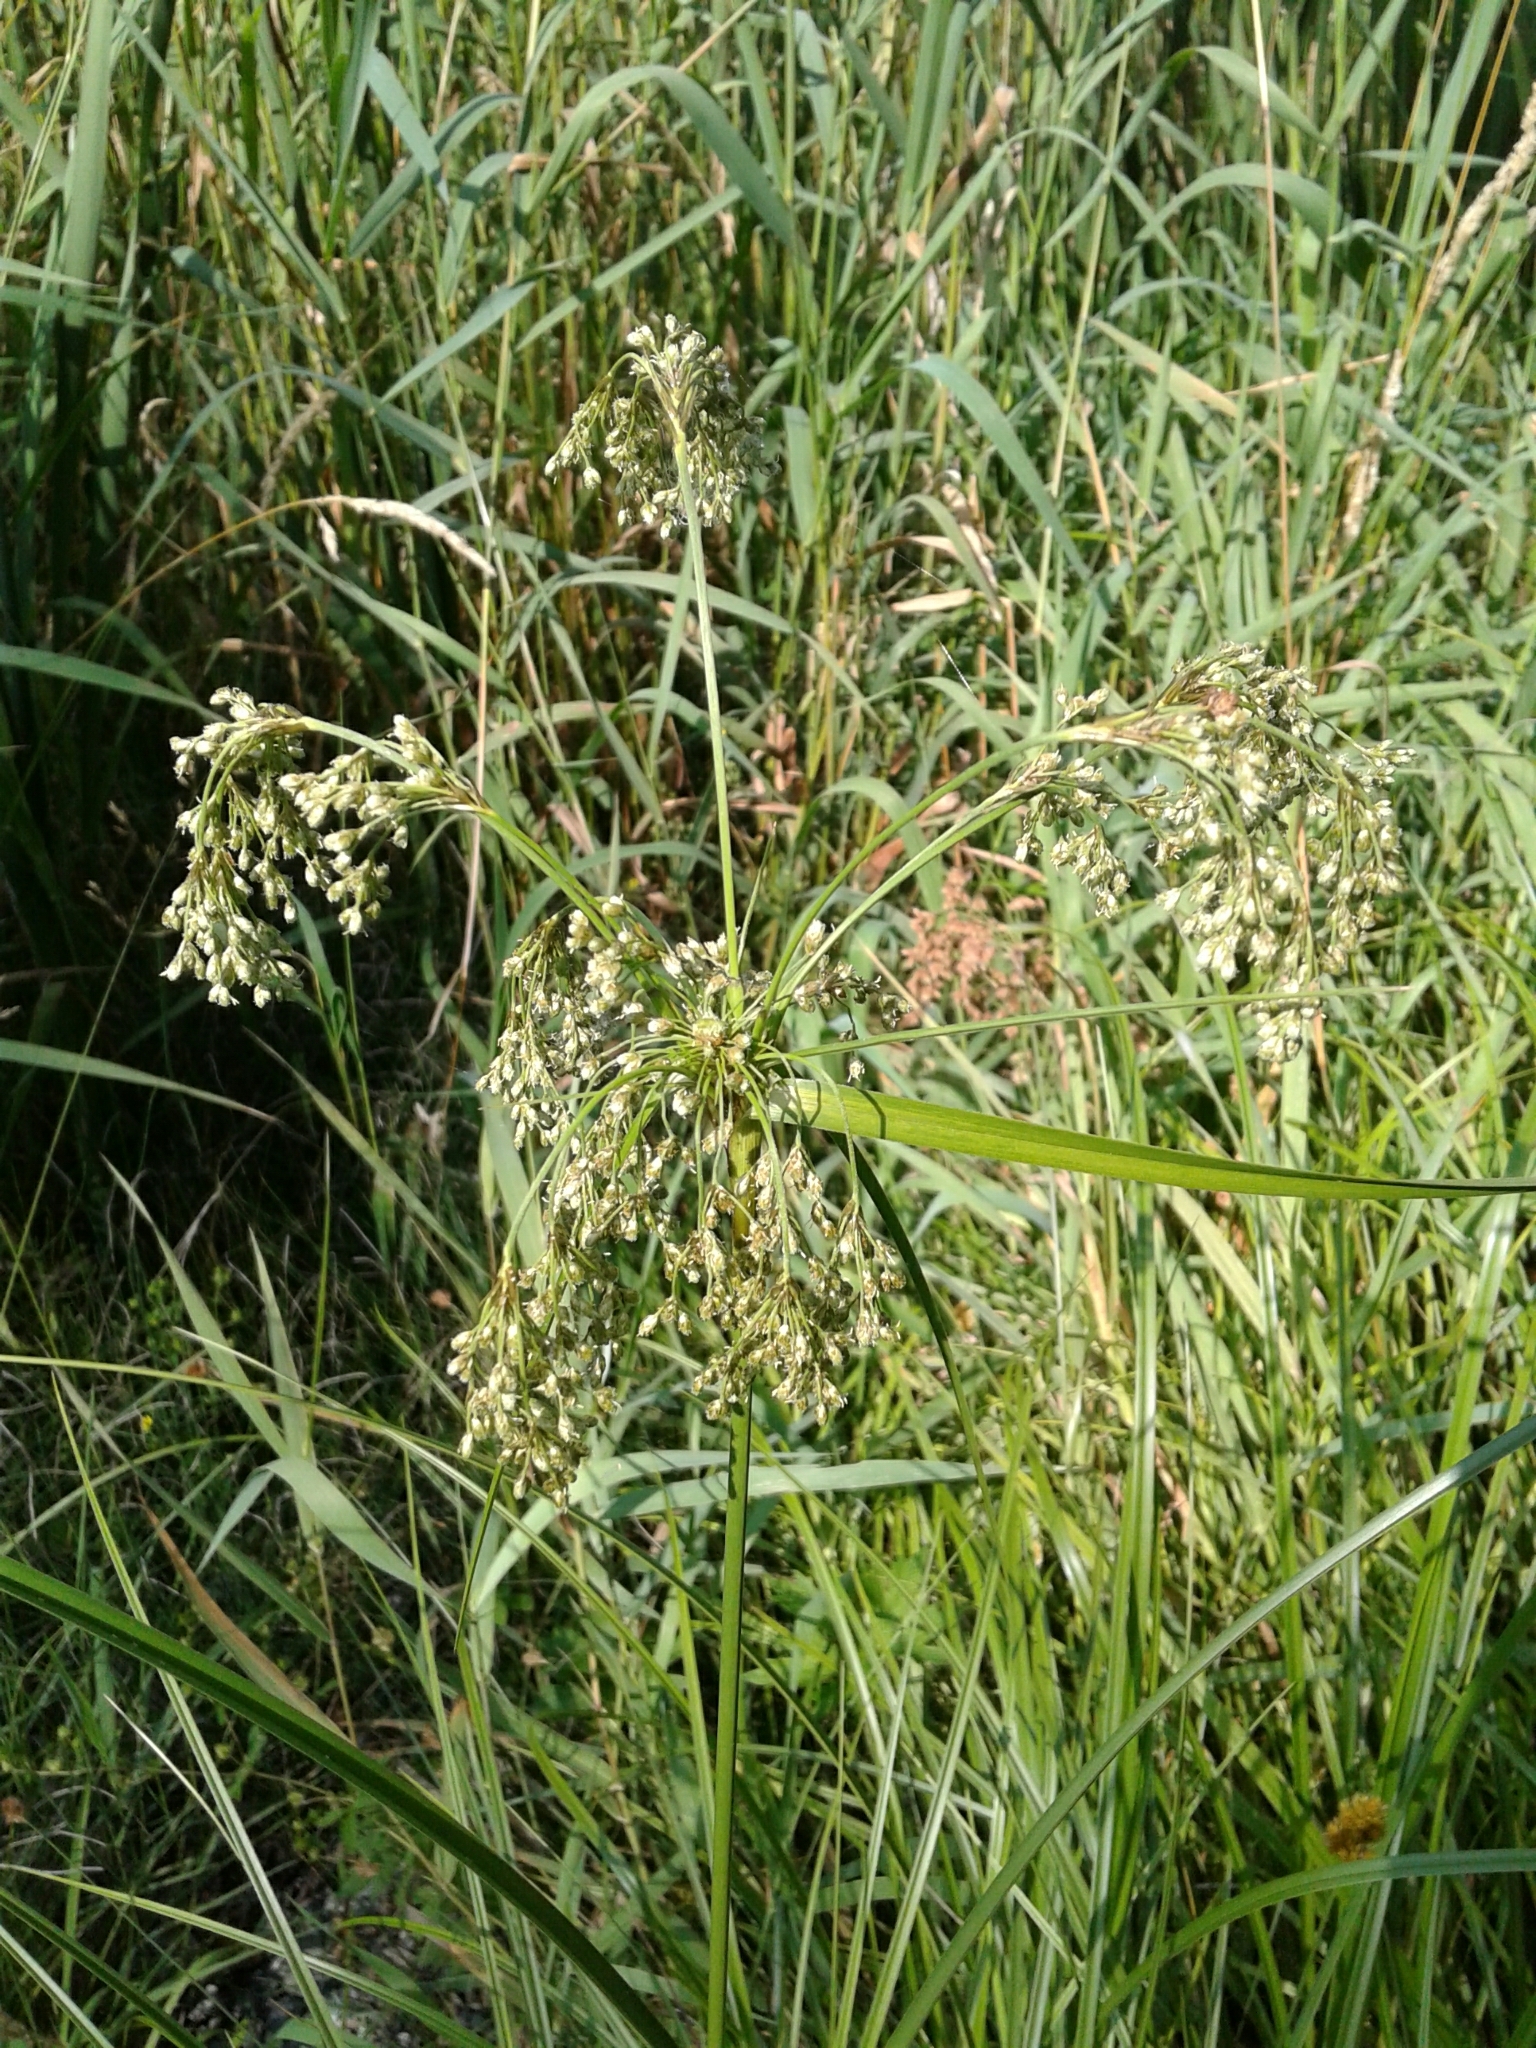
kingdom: Plantae
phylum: Tracheophyta
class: Liliopsida
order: Poales
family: Cyperaceae
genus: Scirpus
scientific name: Scirpus cyperinus
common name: Black-sheathed bulrush
